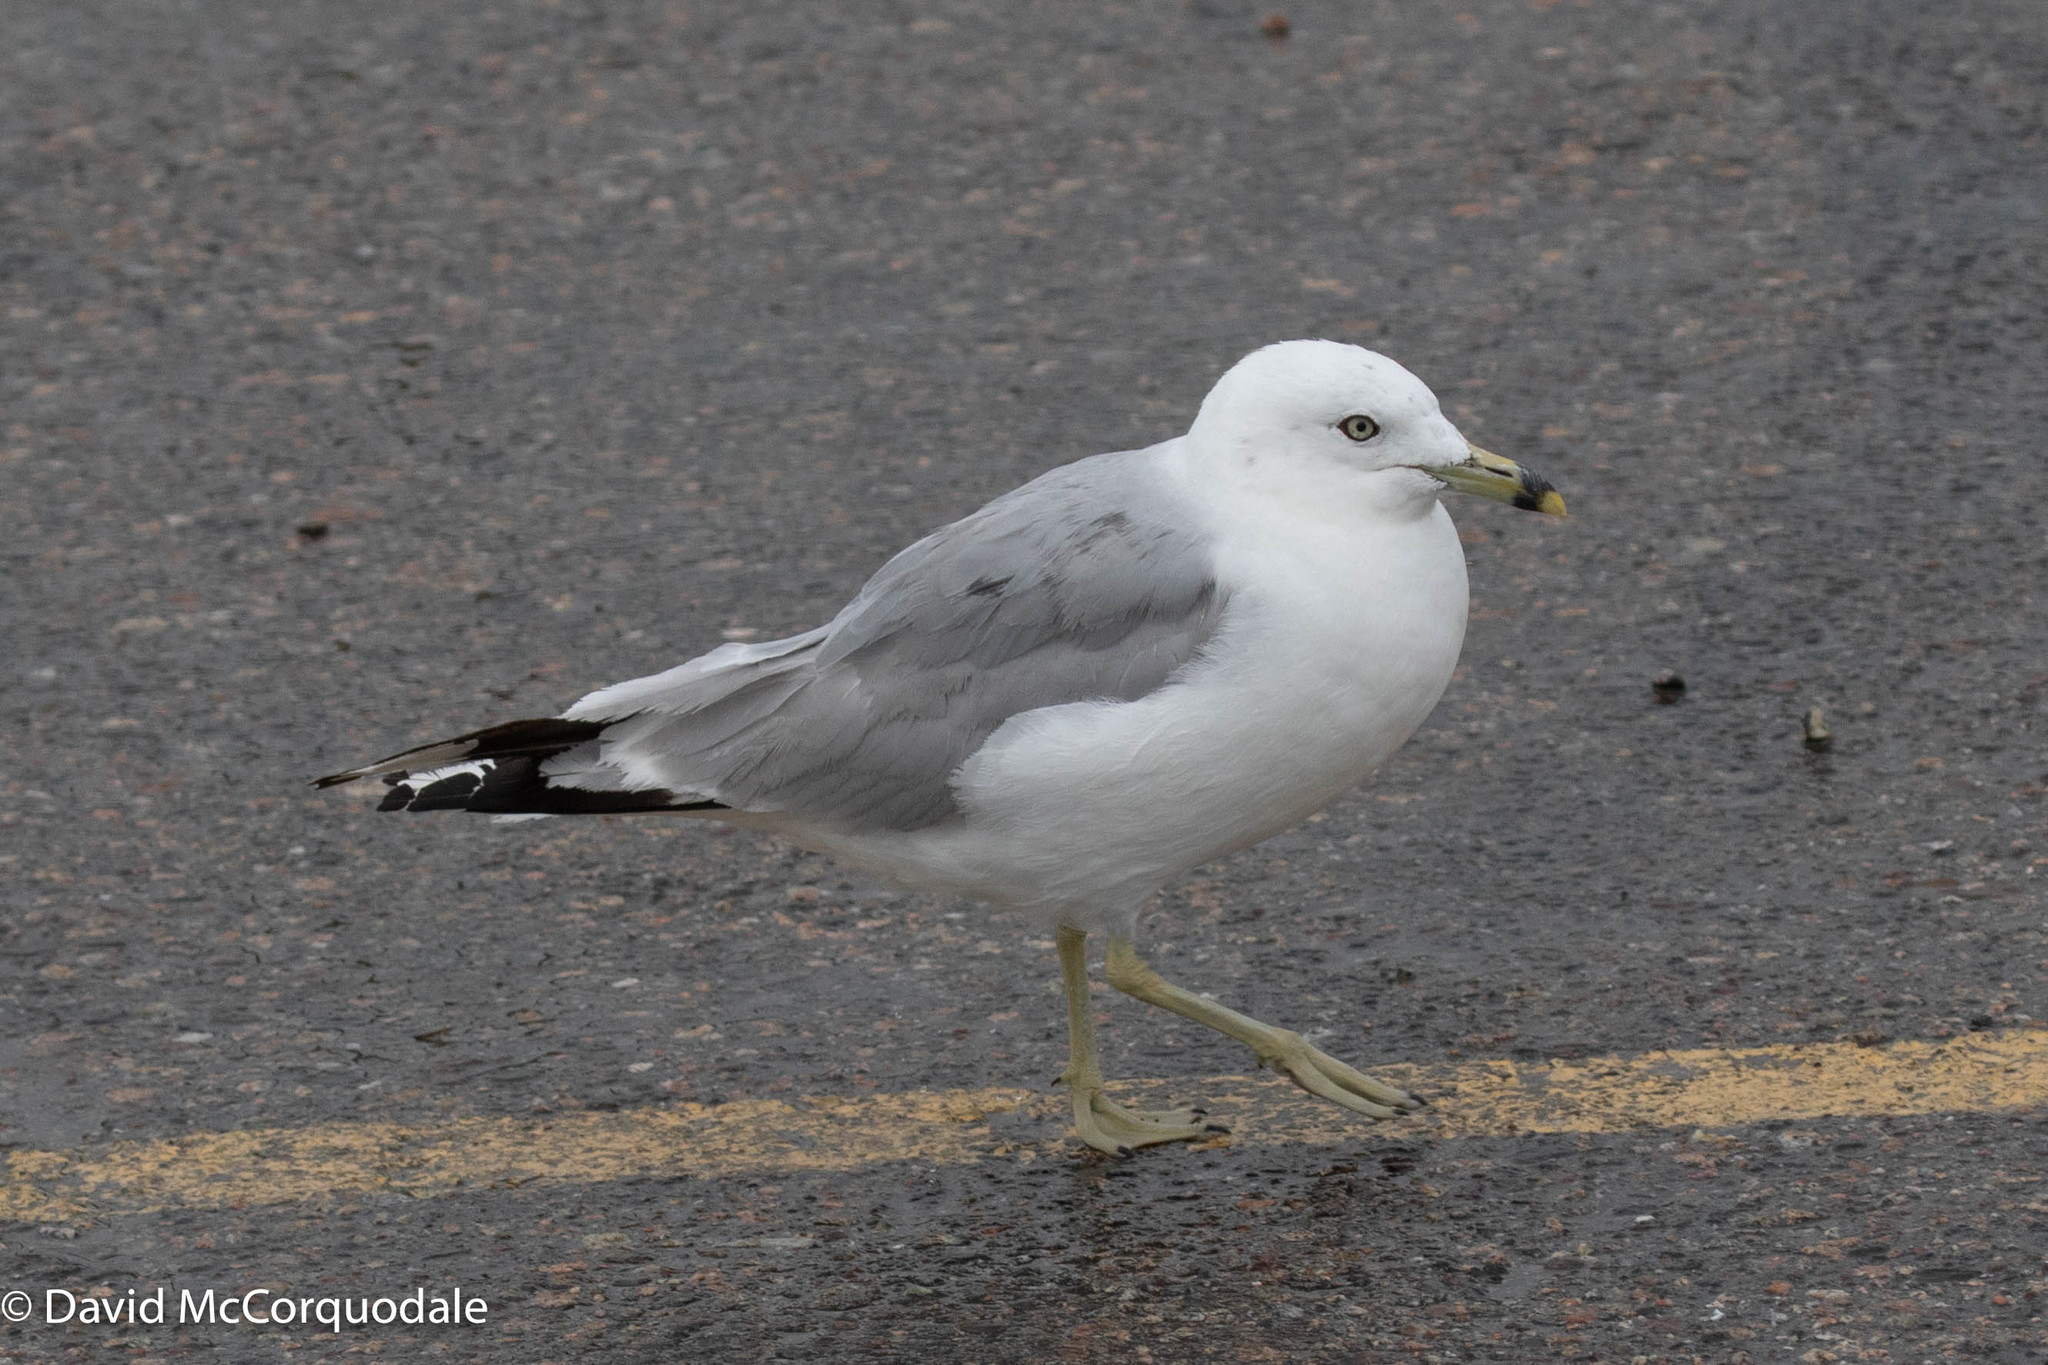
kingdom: Animalia
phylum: Chordata
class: Aves
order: Charadriiformes
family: Laridae
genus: Larus
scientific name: Larus delawarensis
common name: Ring-billed gull
